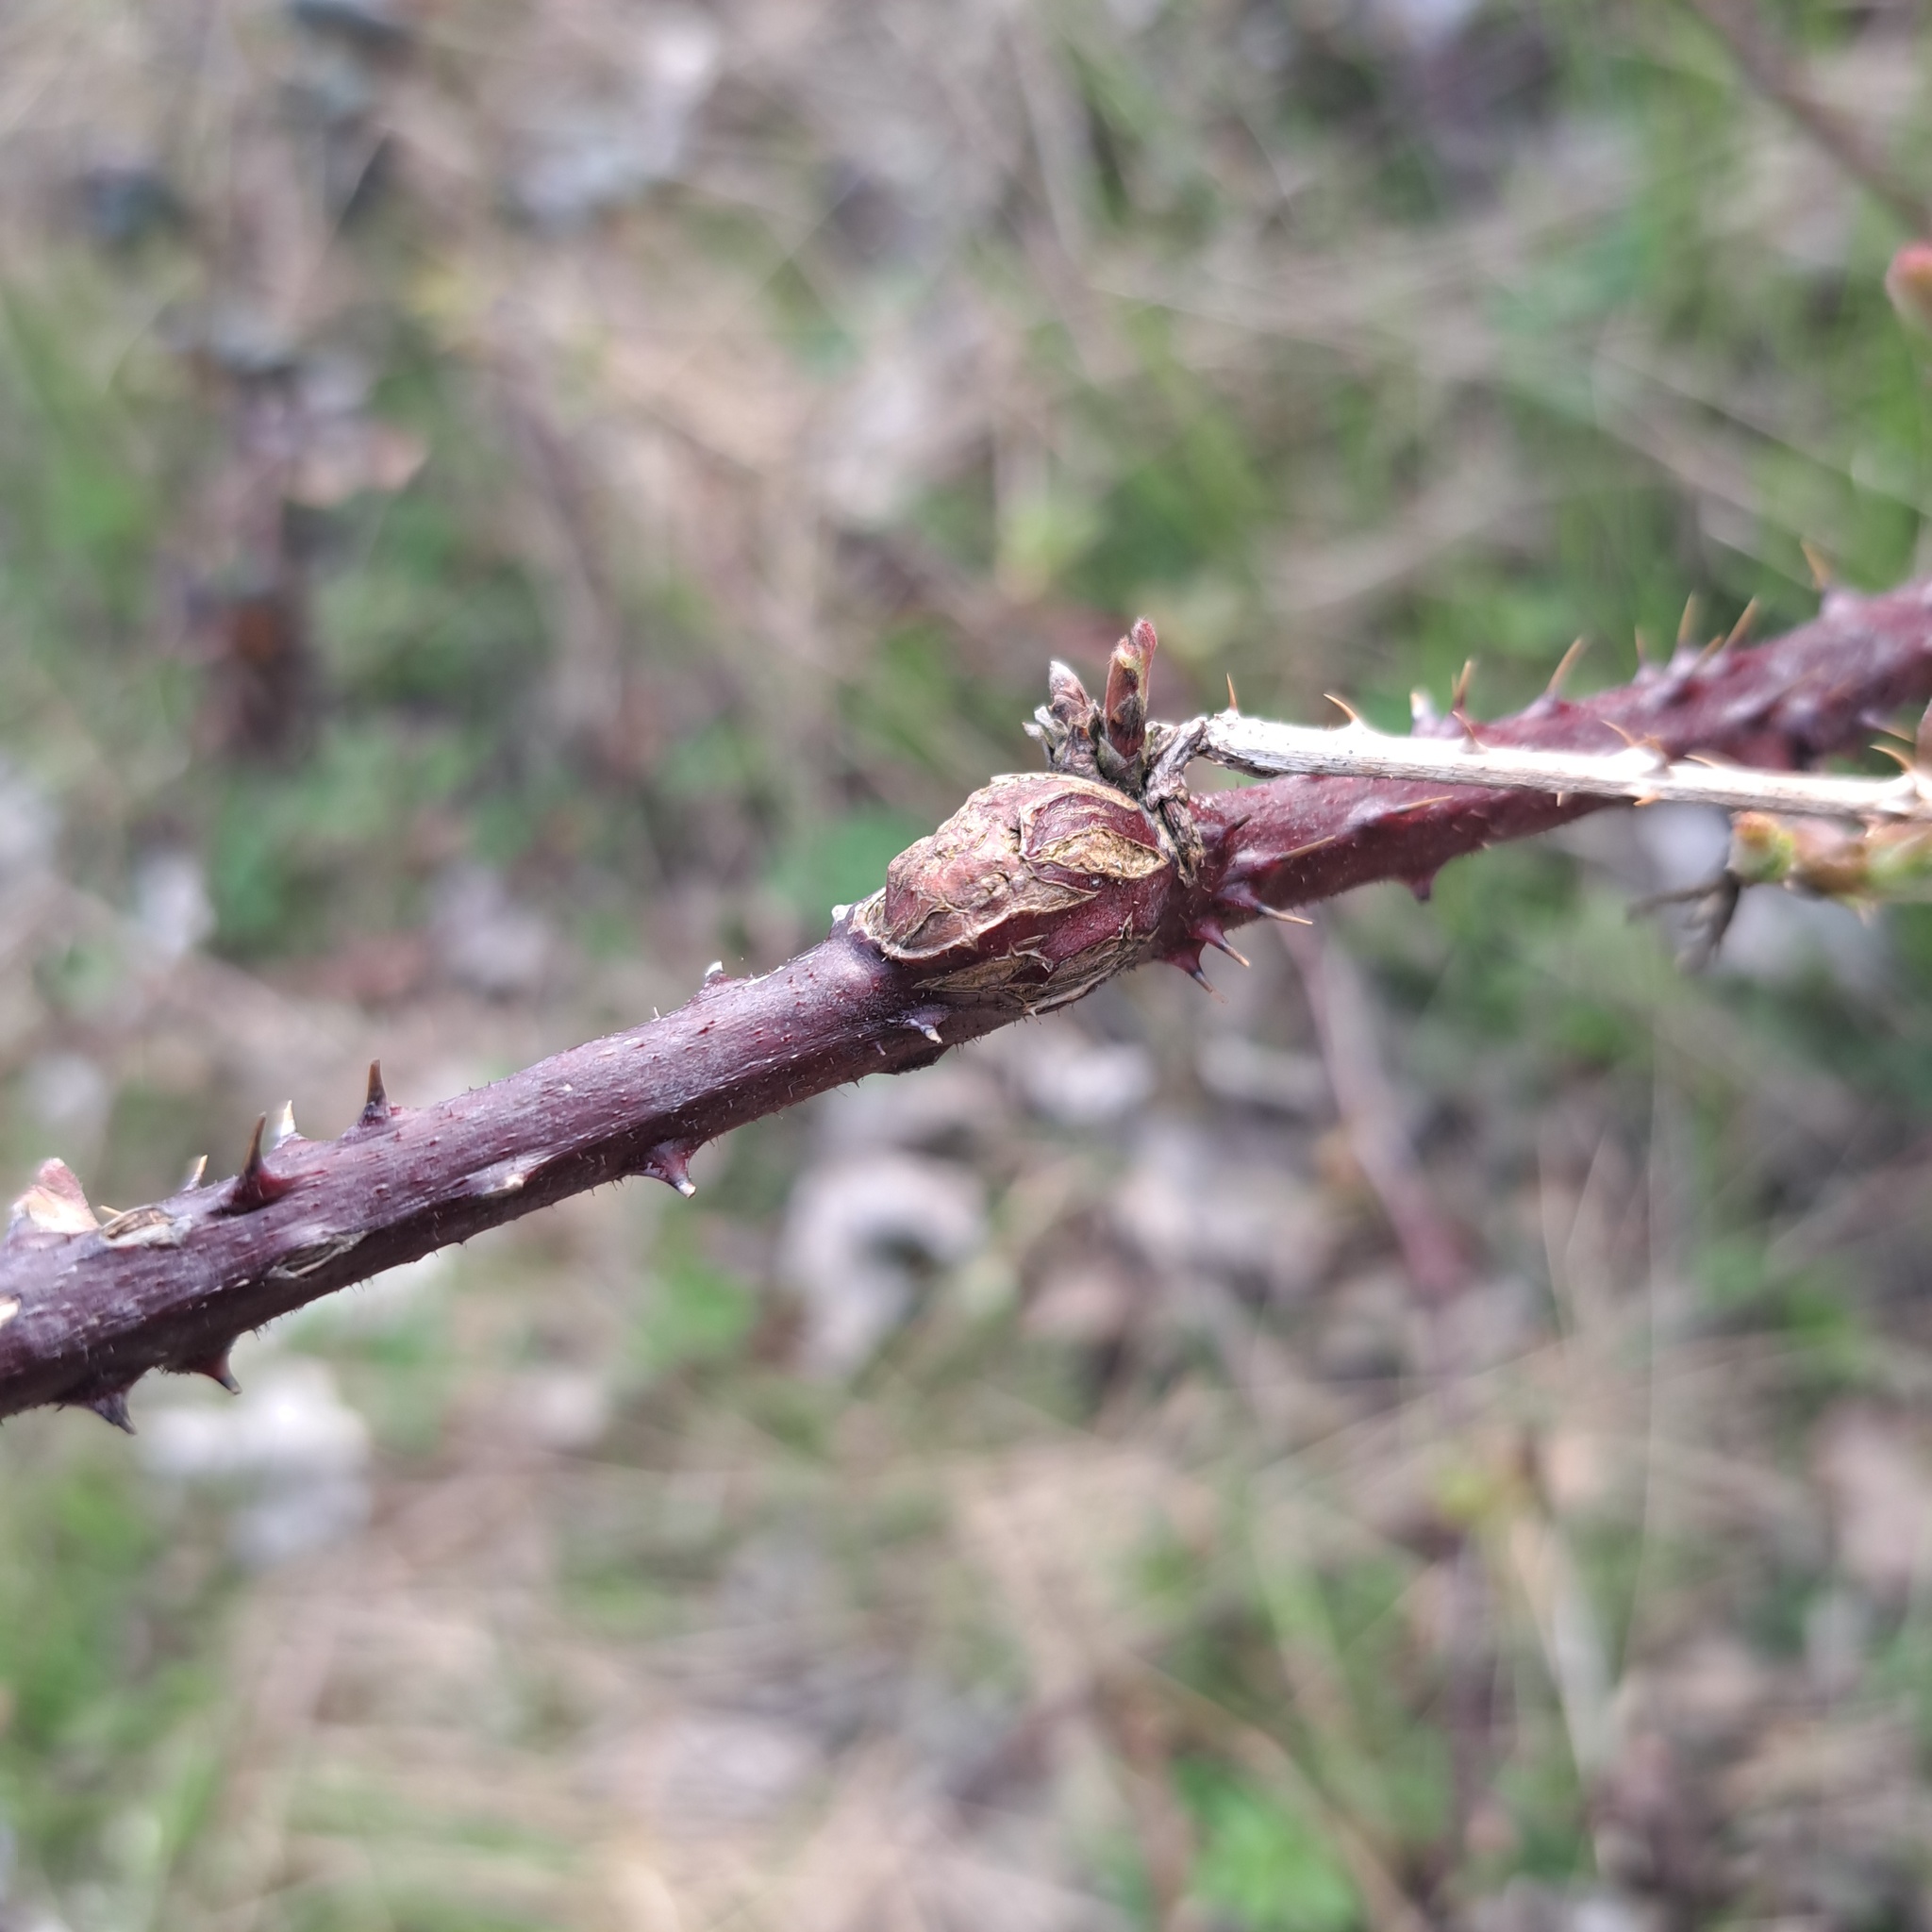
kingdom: Animalia
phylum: Arthropoda
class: Insecta
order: Diptera
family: Cecidomyiidae
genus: Lasioptera
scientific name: Lasioptera rubi
